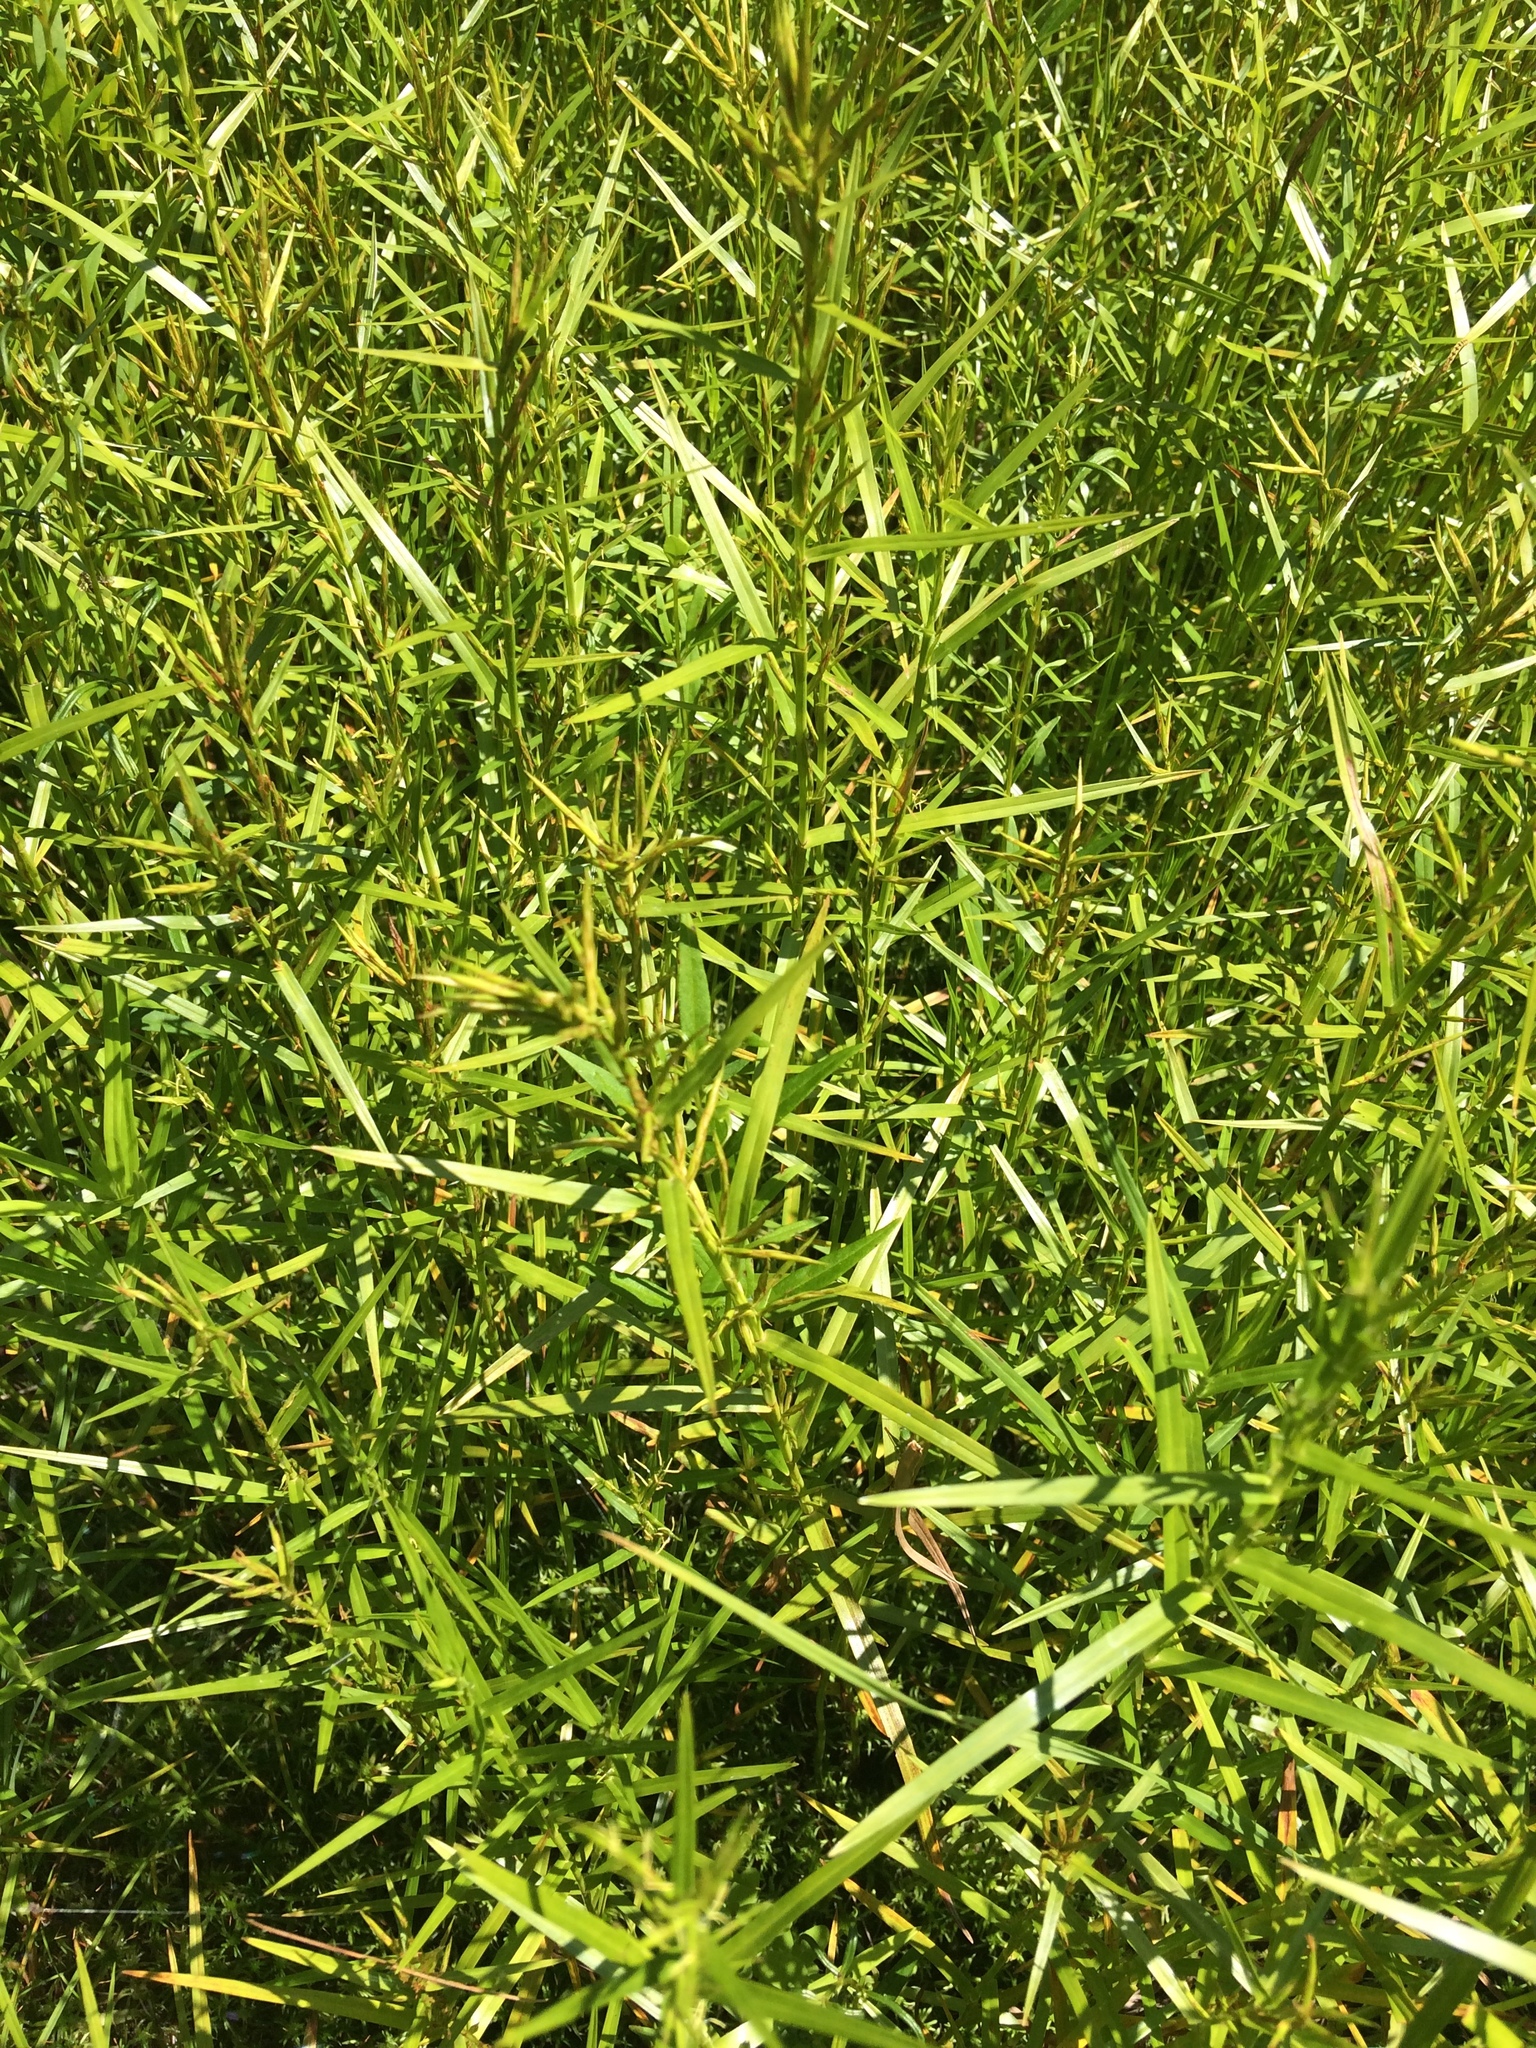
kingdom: Plantae
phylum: Tracheophyta
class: Liliopsida
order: Poales
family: Cyperaceae
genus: Dulichium
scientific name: Dulichium arundinaceum
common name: Three-way sedge
